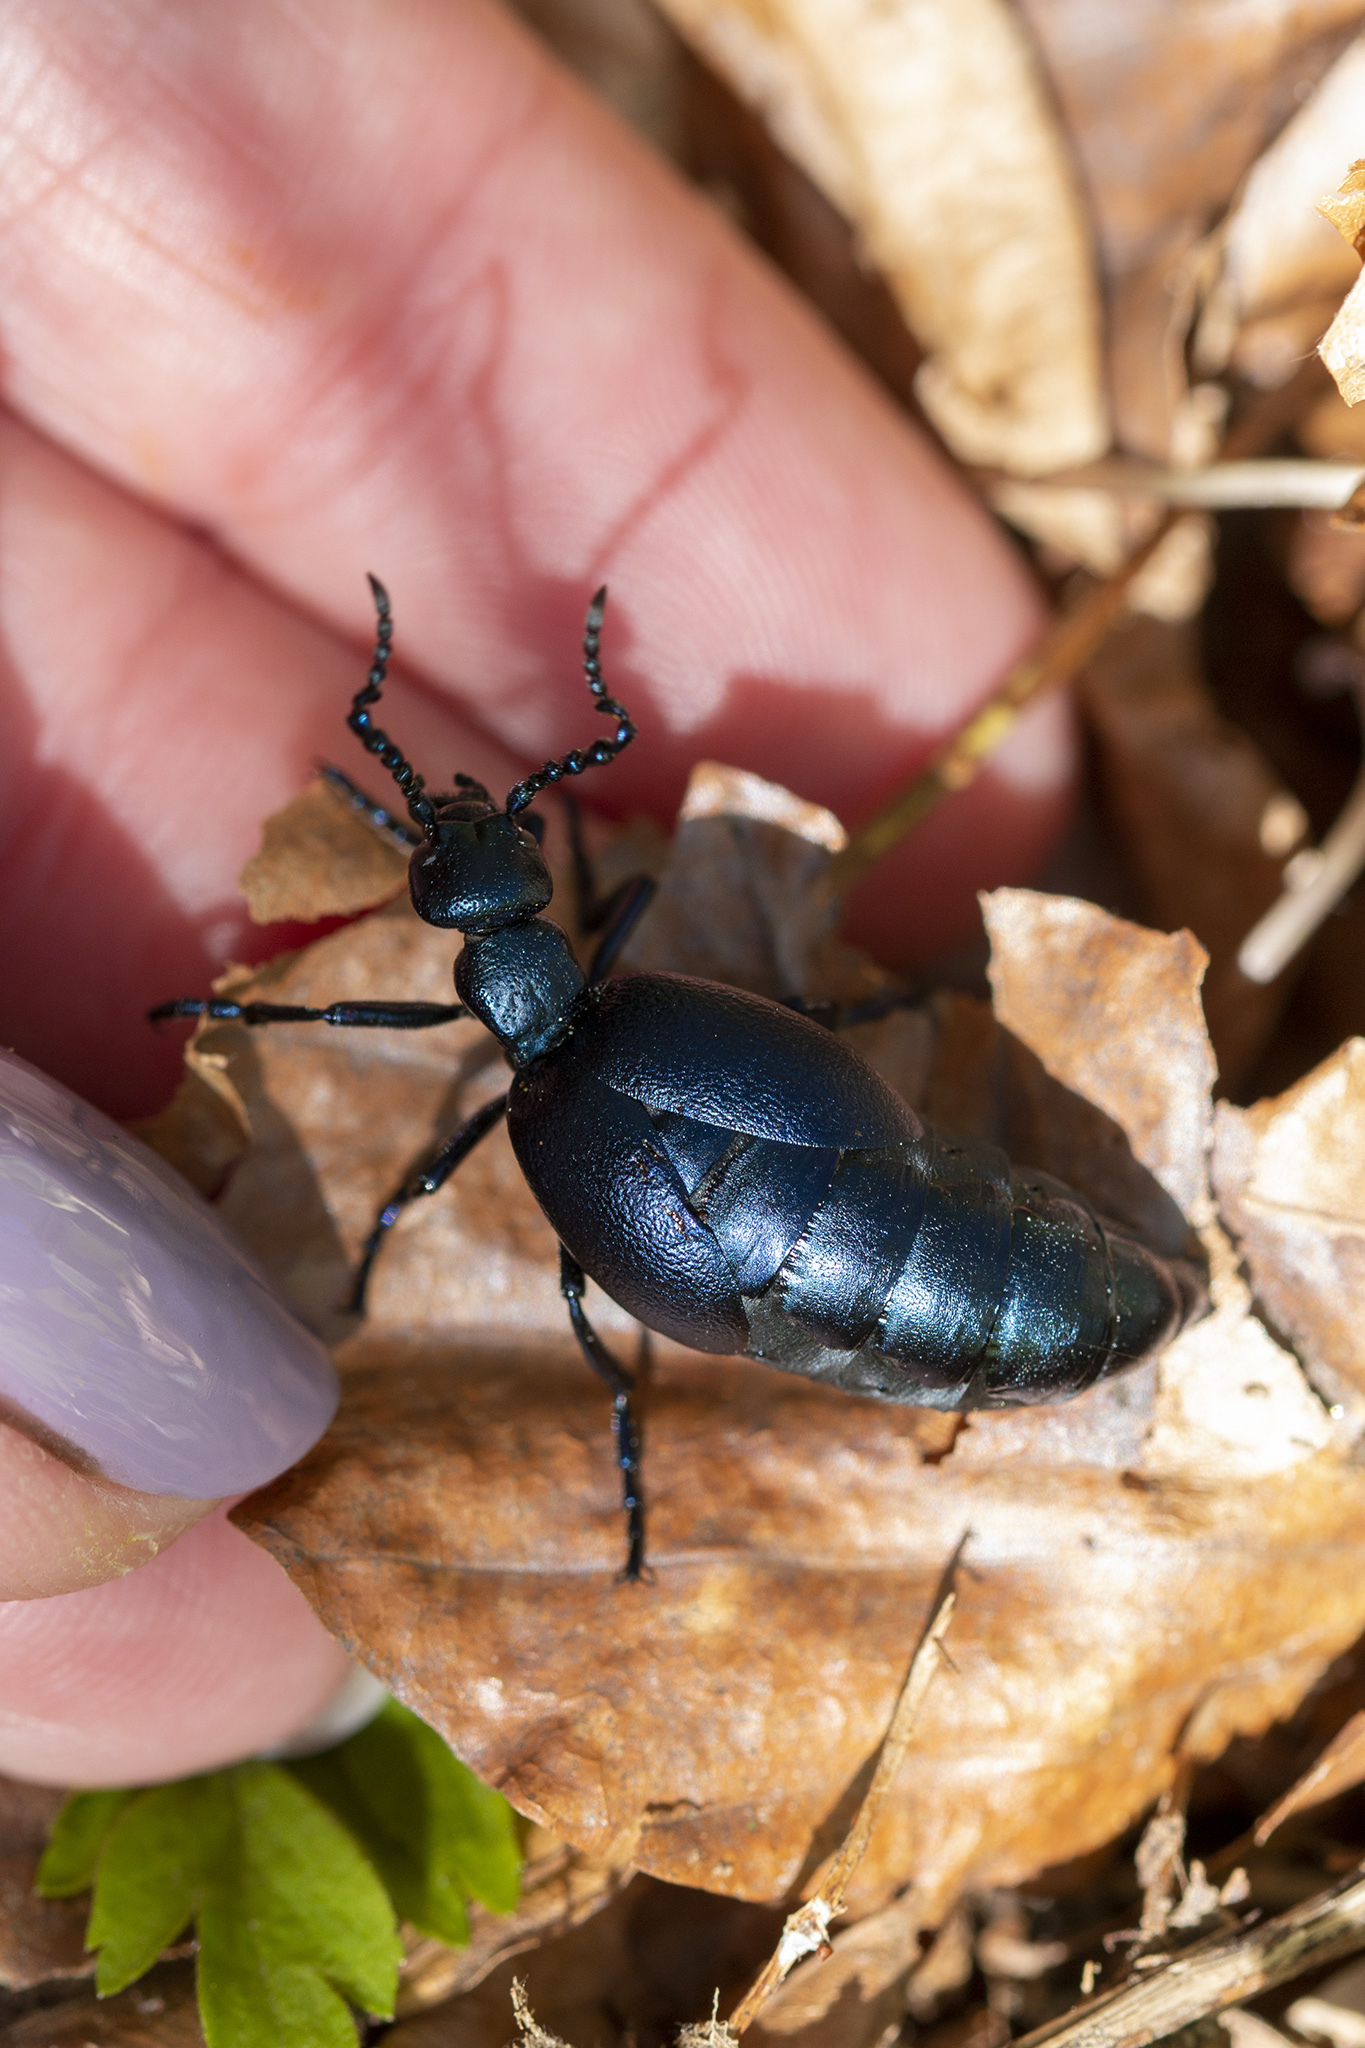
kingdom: Animalia
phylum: Arthropoda
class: Insecta
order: Coleoptera
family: Meloidae
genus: Meloe
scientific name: Meloe violaceus
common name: Violet oil-beetle
